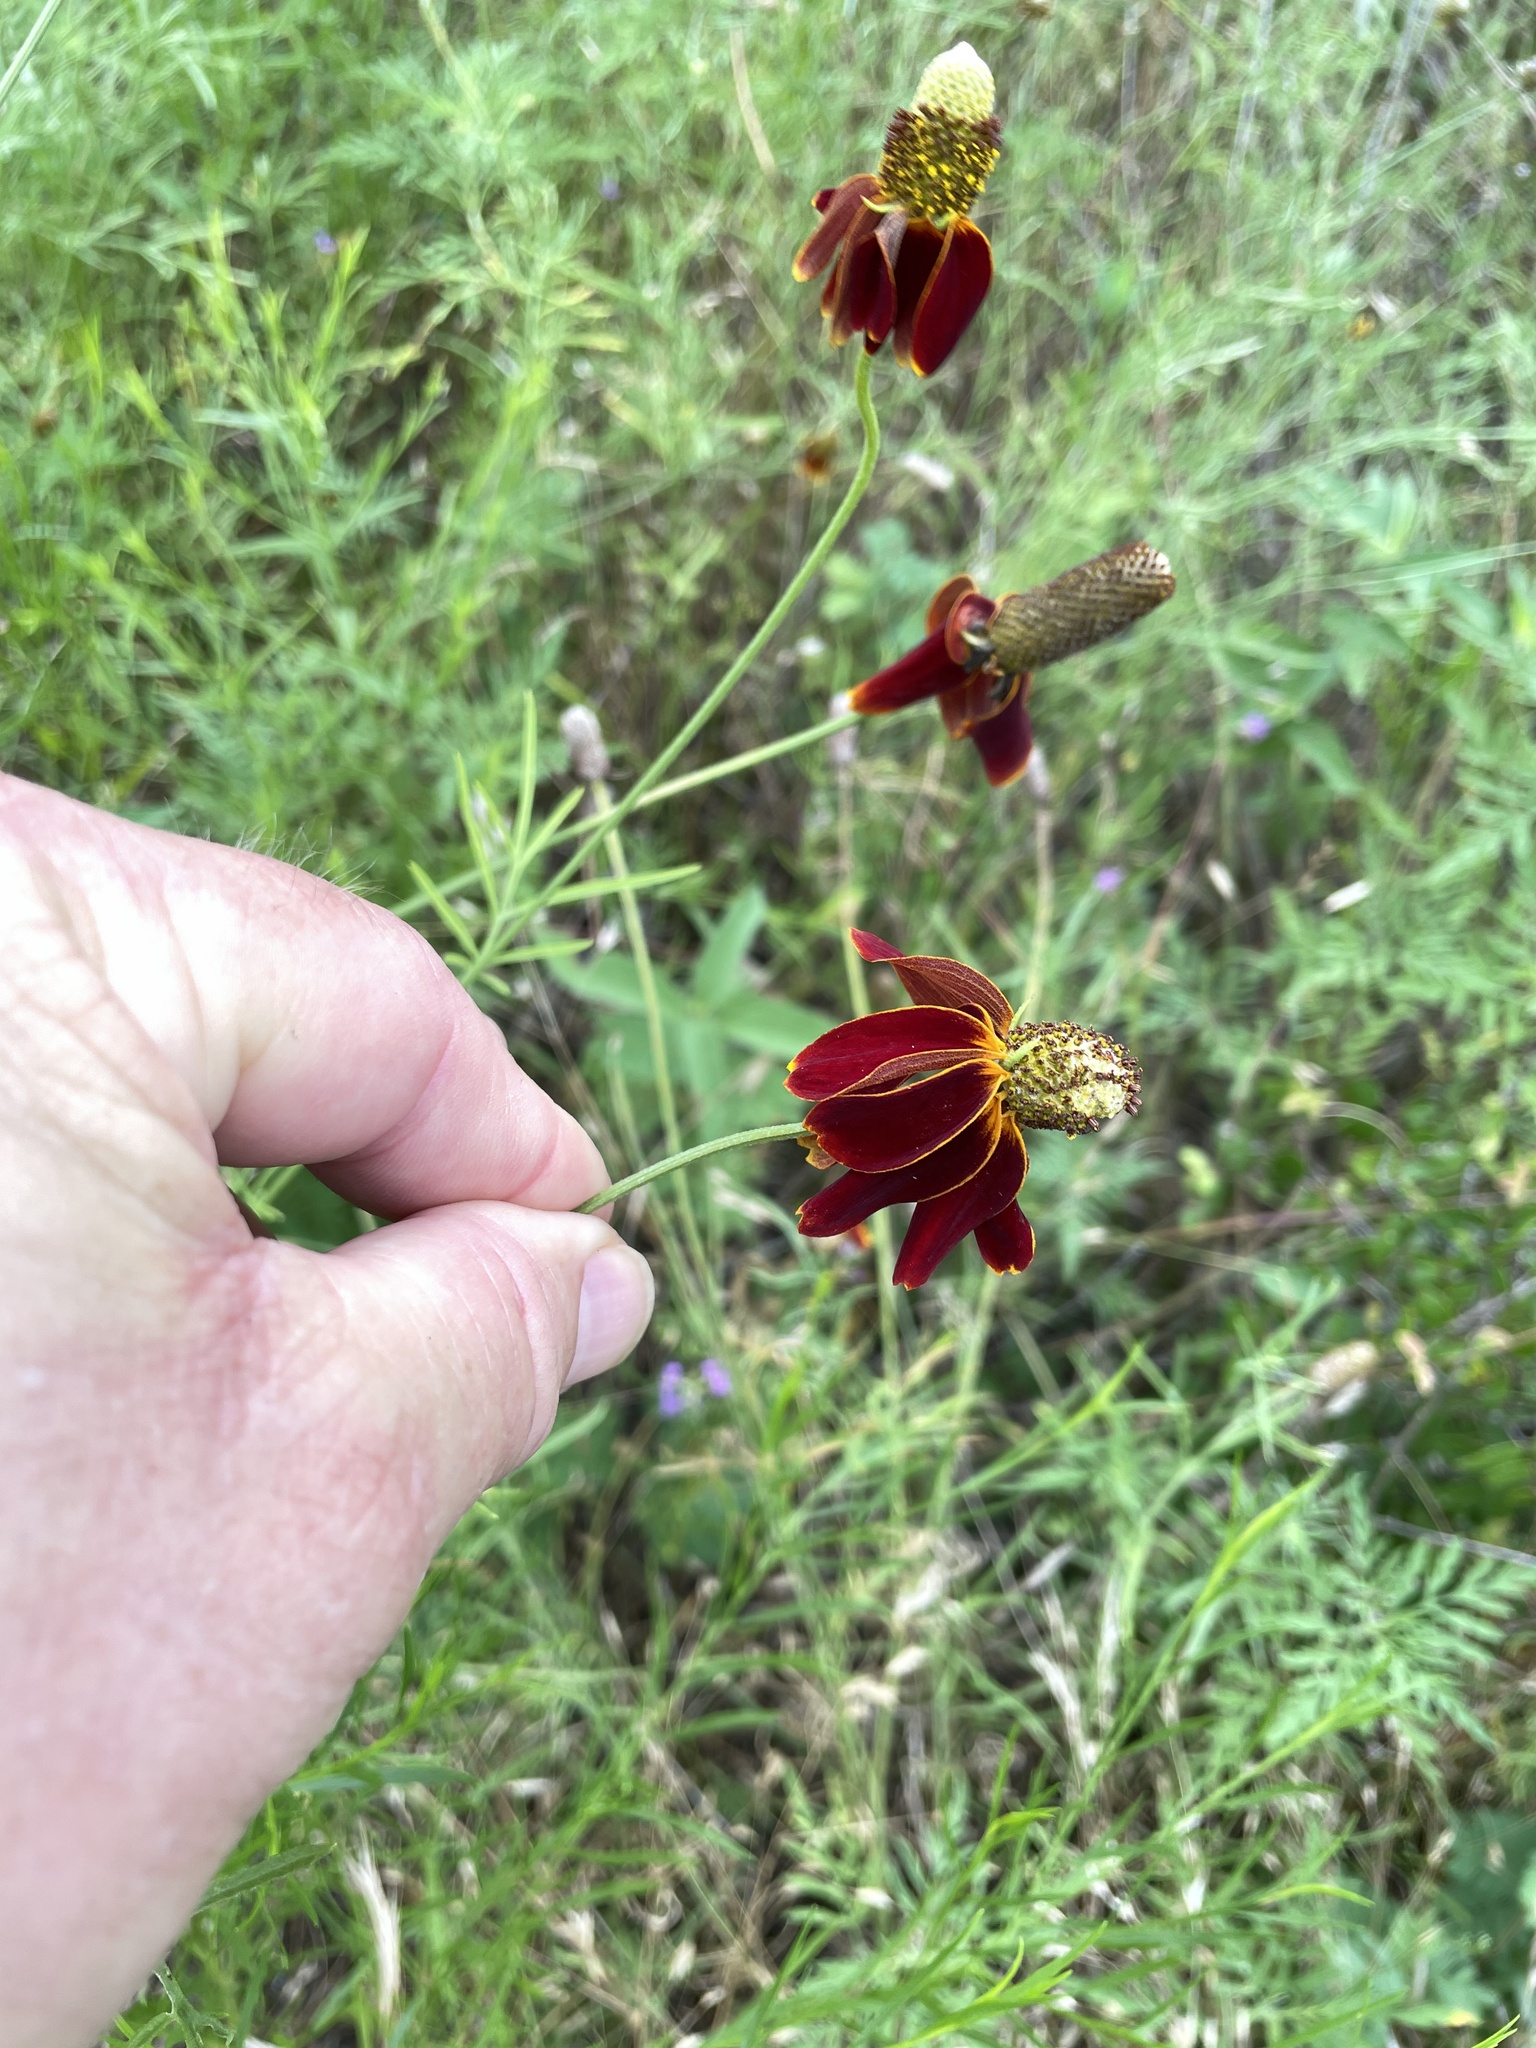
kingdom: Plantae
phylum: Tracheophyta
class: Magnoliopsida
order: Asterales
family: Asteraceae
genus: Ratibida
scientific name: Ratibida columnifera
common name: Prairie coneflower
